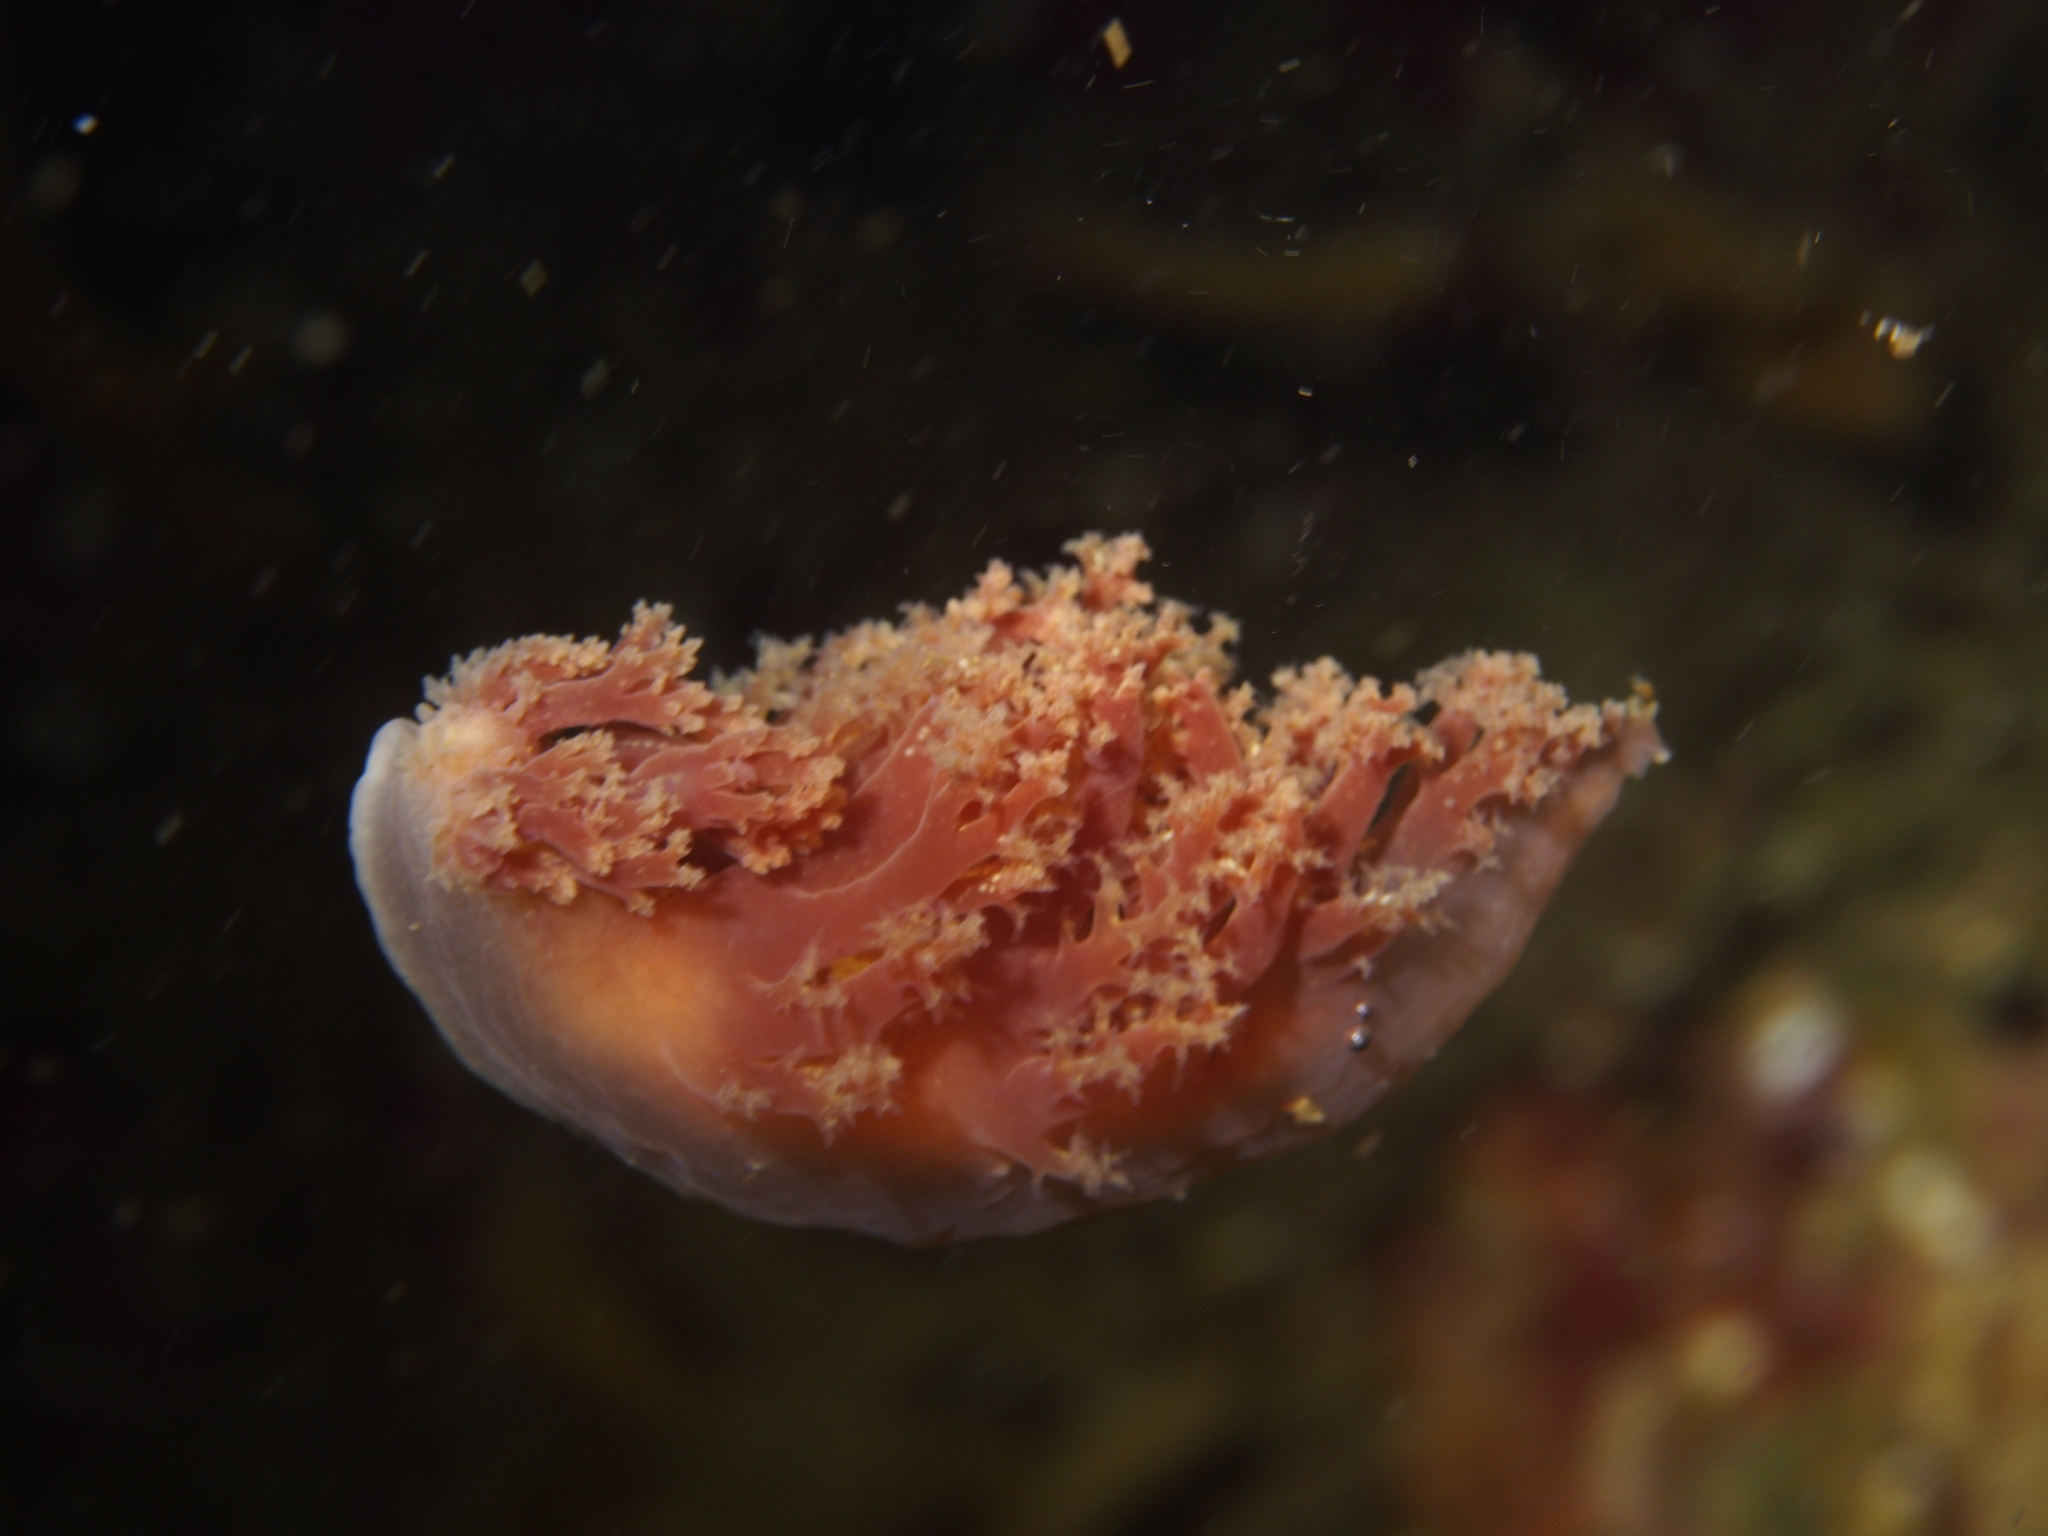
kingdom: Animalia
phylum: Mollusca
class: Gastropoda
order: Nudibranchia
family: Dendronotidae
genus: Dendronotus
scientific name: Dendronotus lacteus
